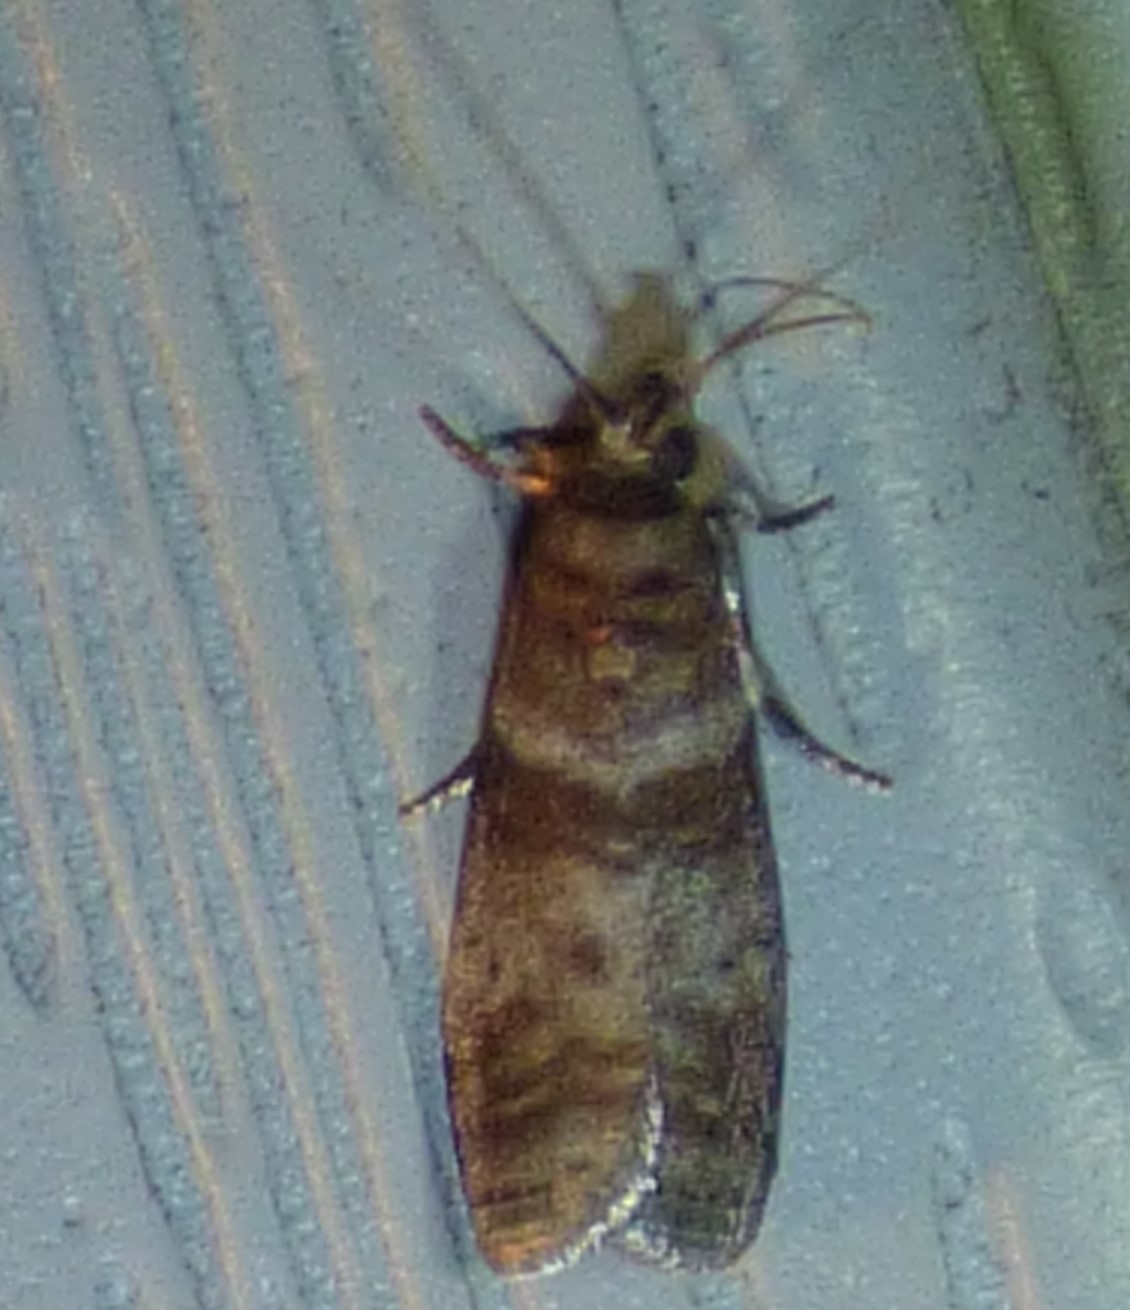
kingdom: Animalia
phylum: Arthropoda
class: Insecta
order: Lepidoptera
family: Pyralidae
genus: Sciota
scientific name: Sciota uvinella
